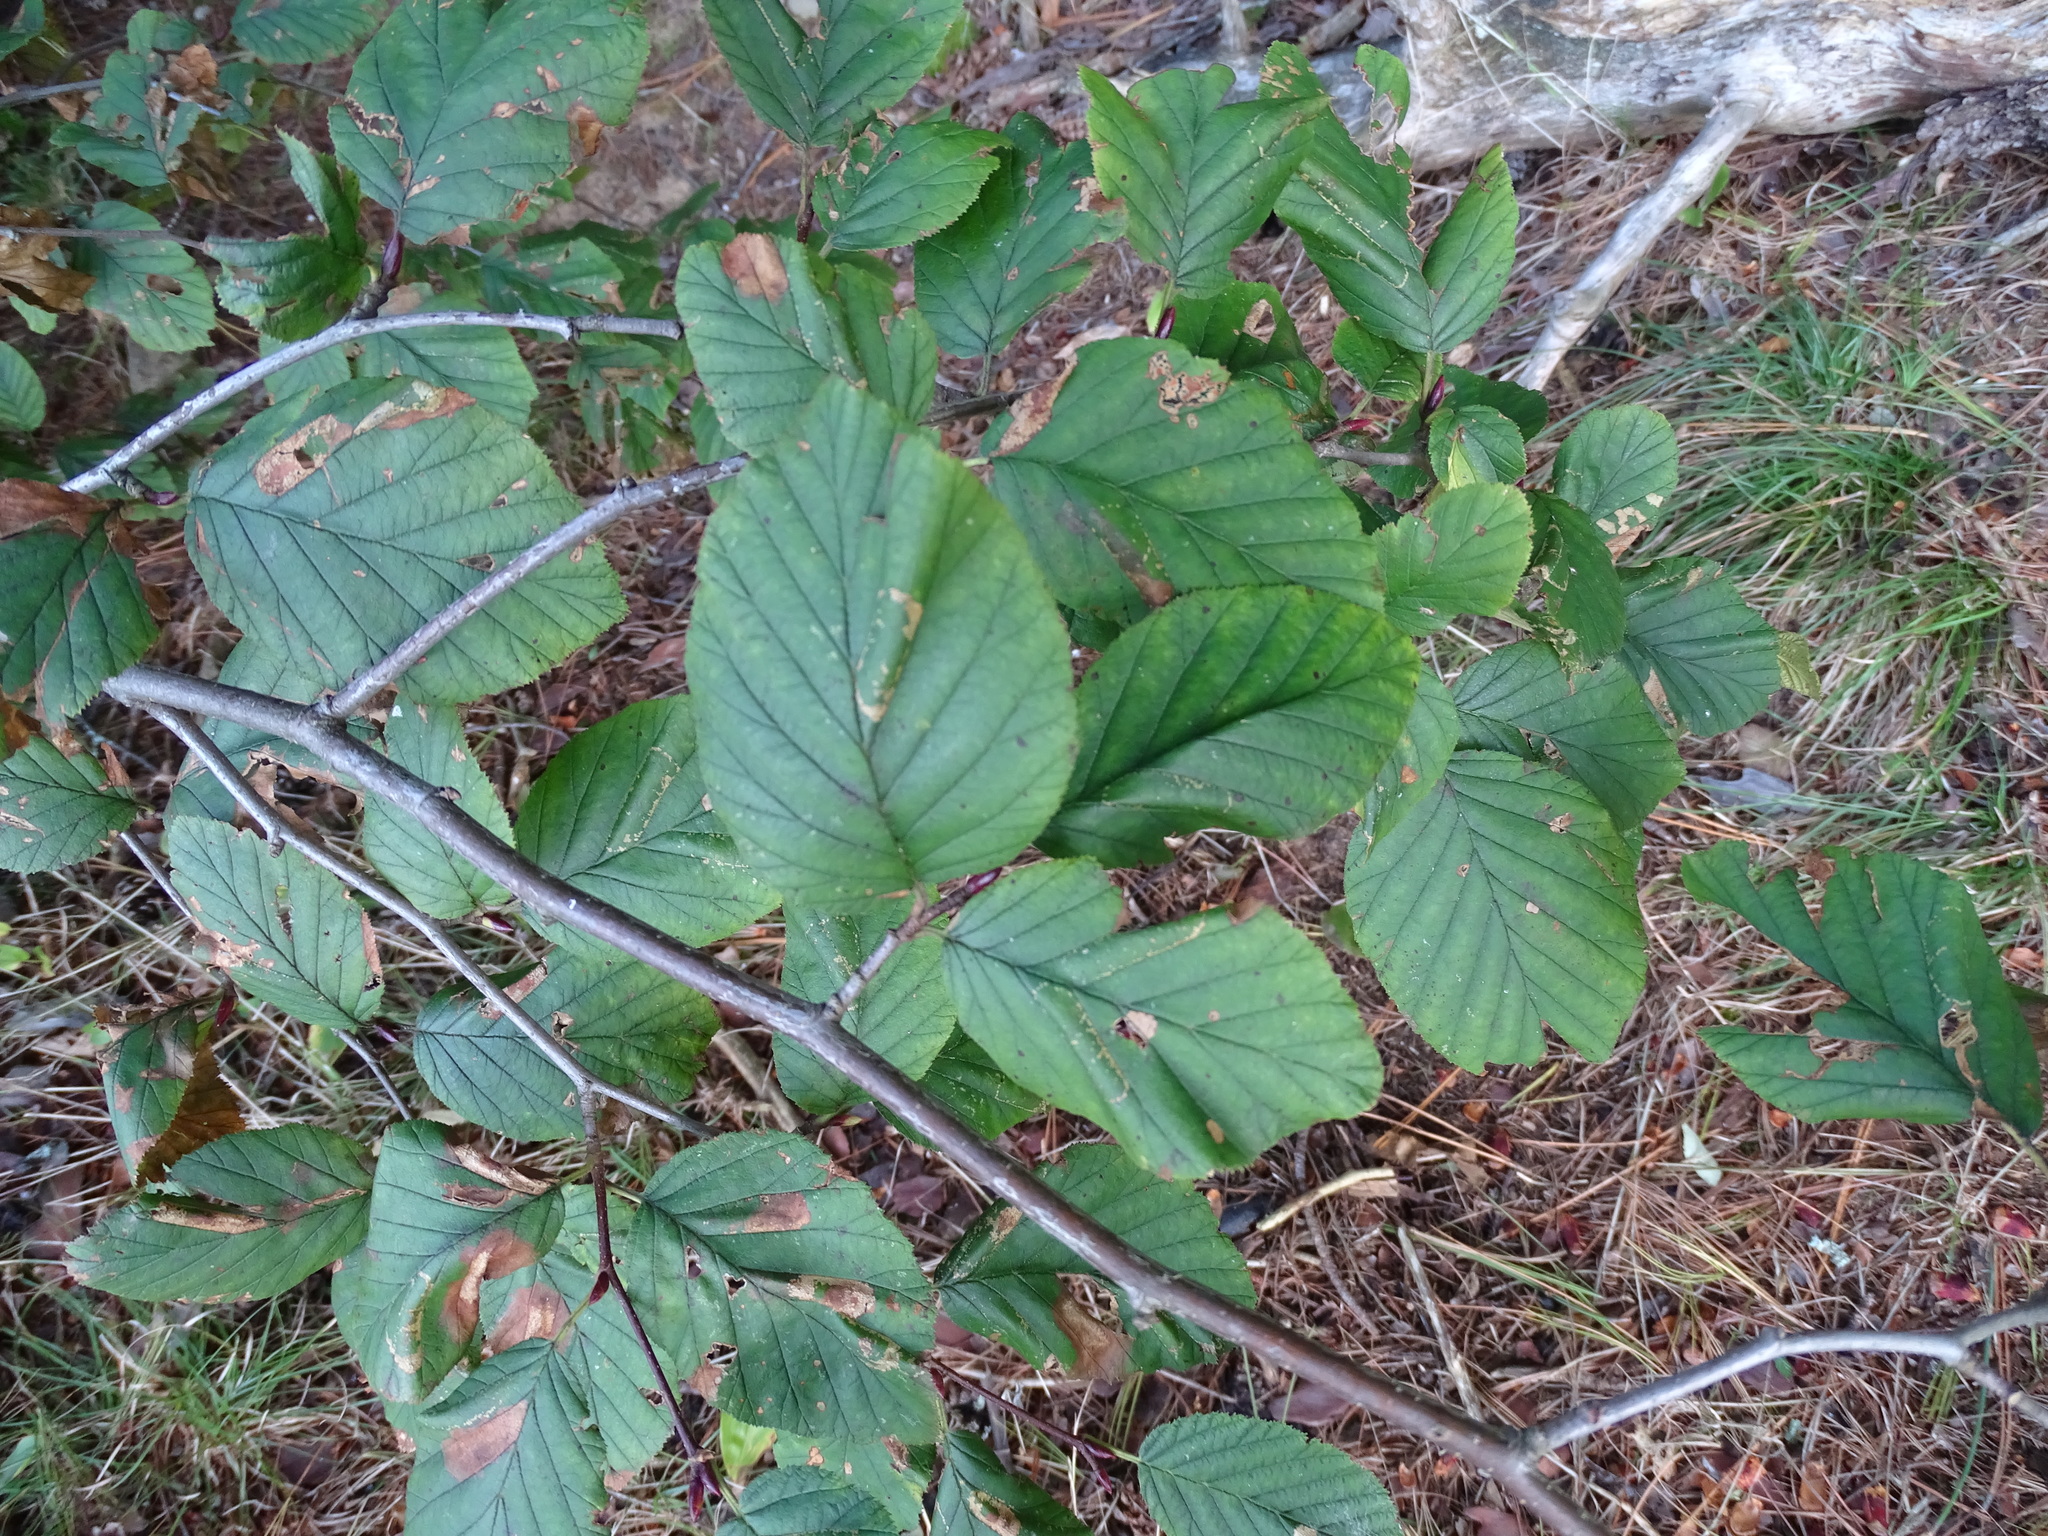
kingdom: Plantae
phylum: Tracheophyta
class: Magnoliopsida
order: Fagales
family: Betulaceae
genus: Alnus
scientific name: Alnus alnobetula
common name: Green alder
